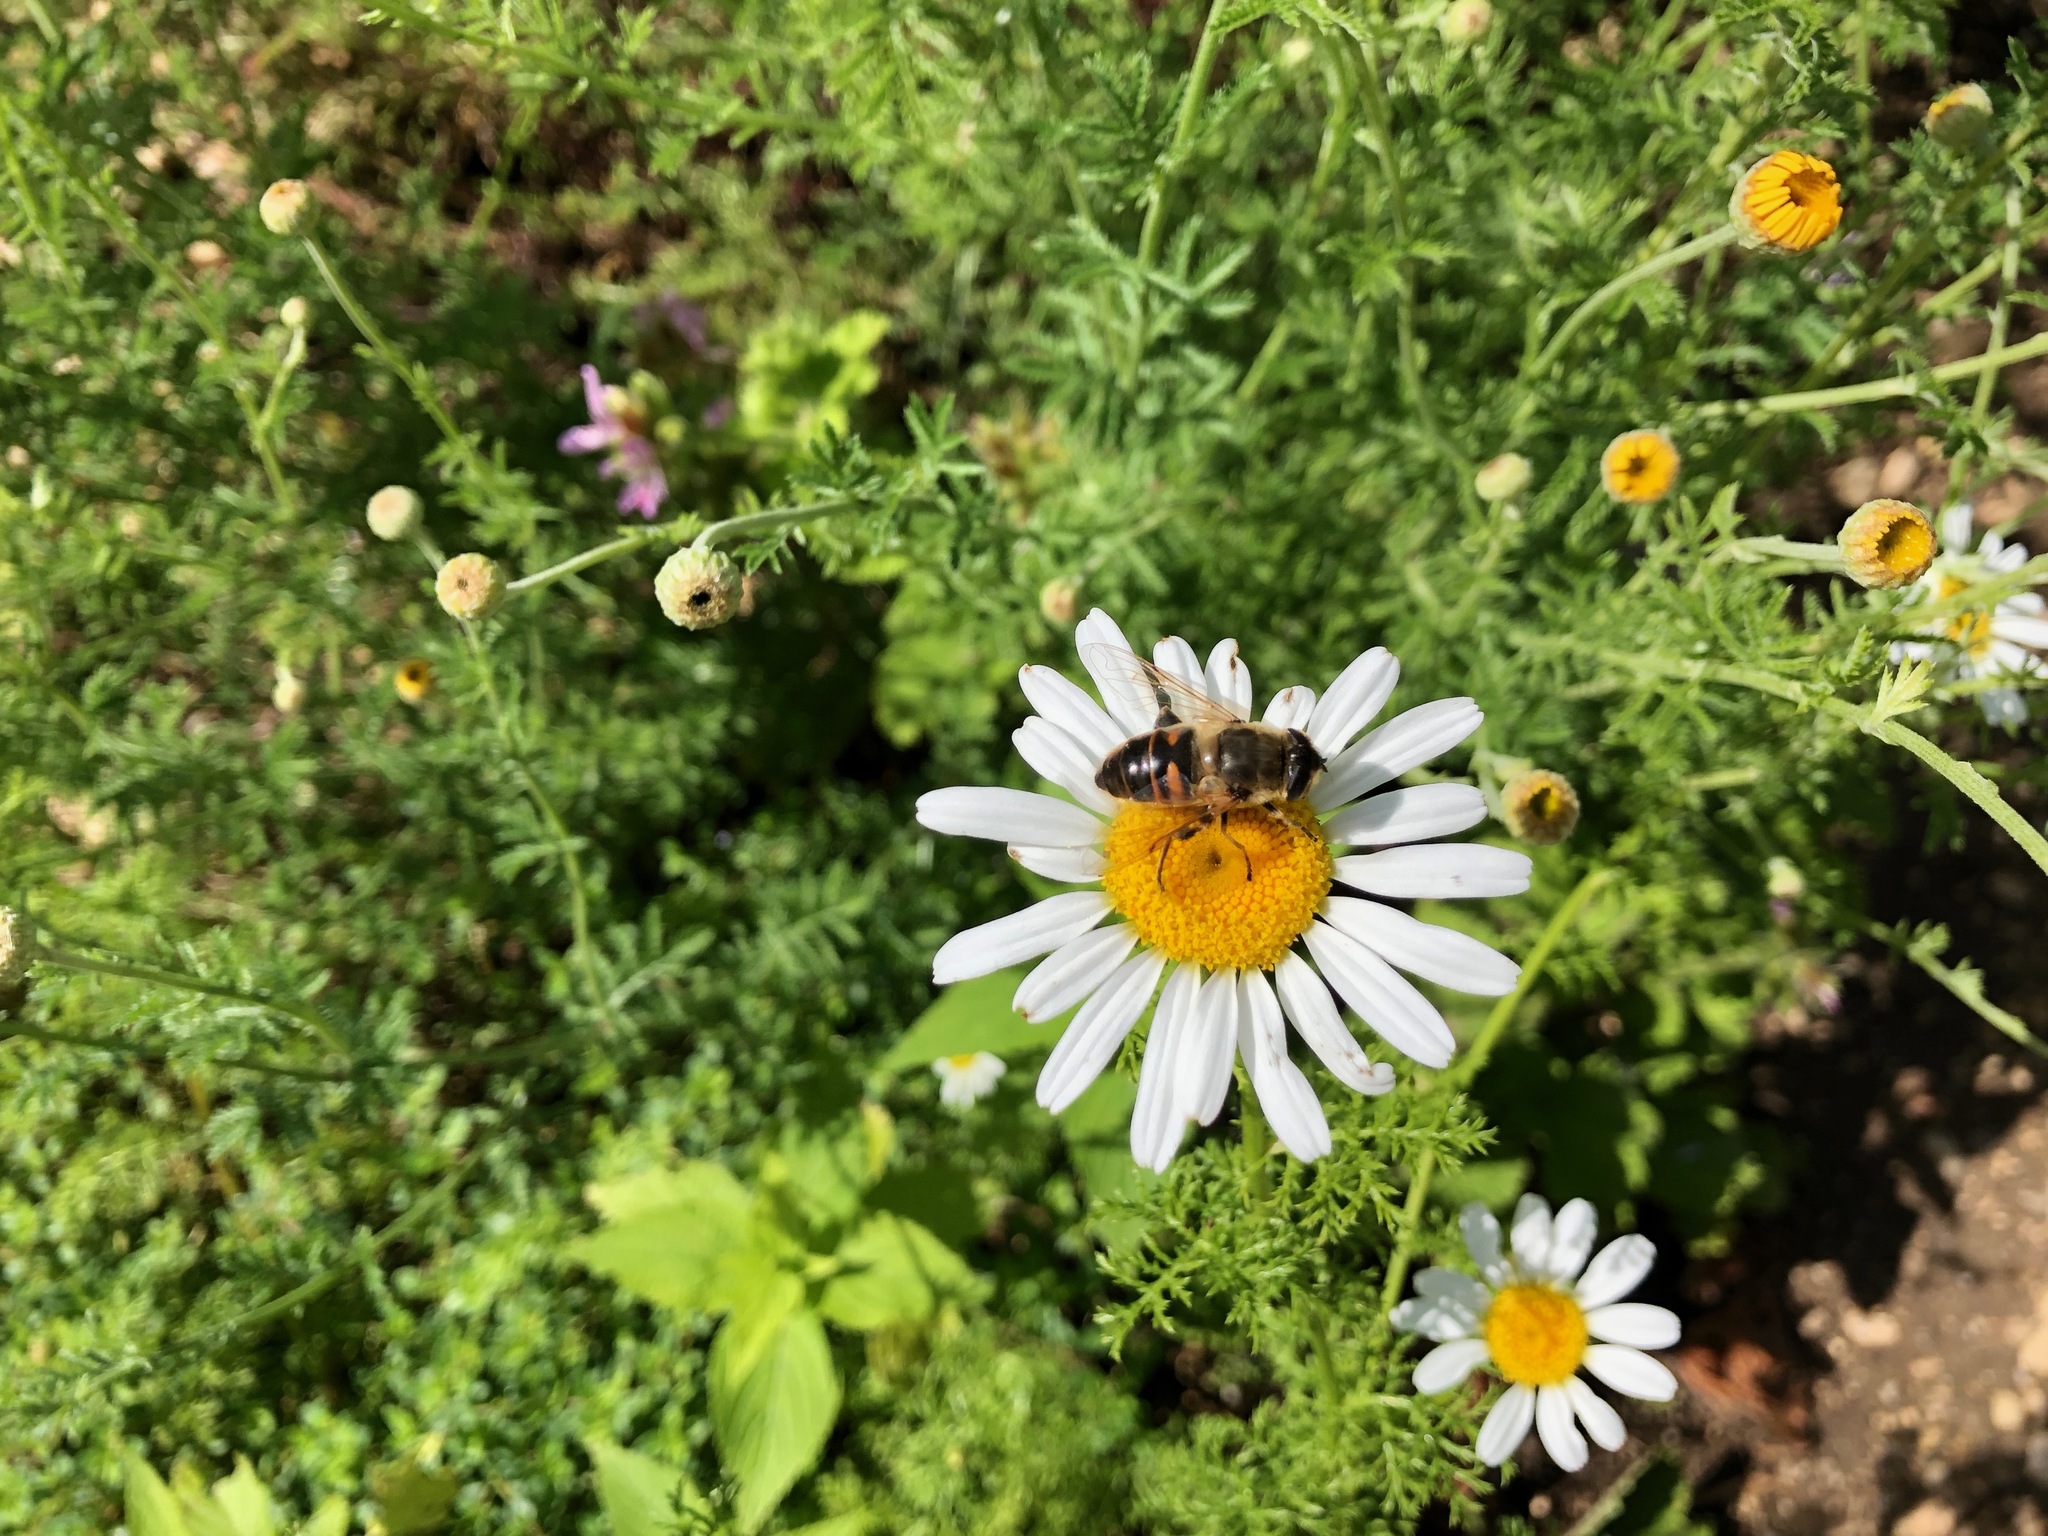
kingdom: Animalia
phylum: Arthropoda
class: Insecta
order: Diptera
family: Syrphidae
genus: Eristalis
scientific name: Eristalis tenax
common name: Drone fly
